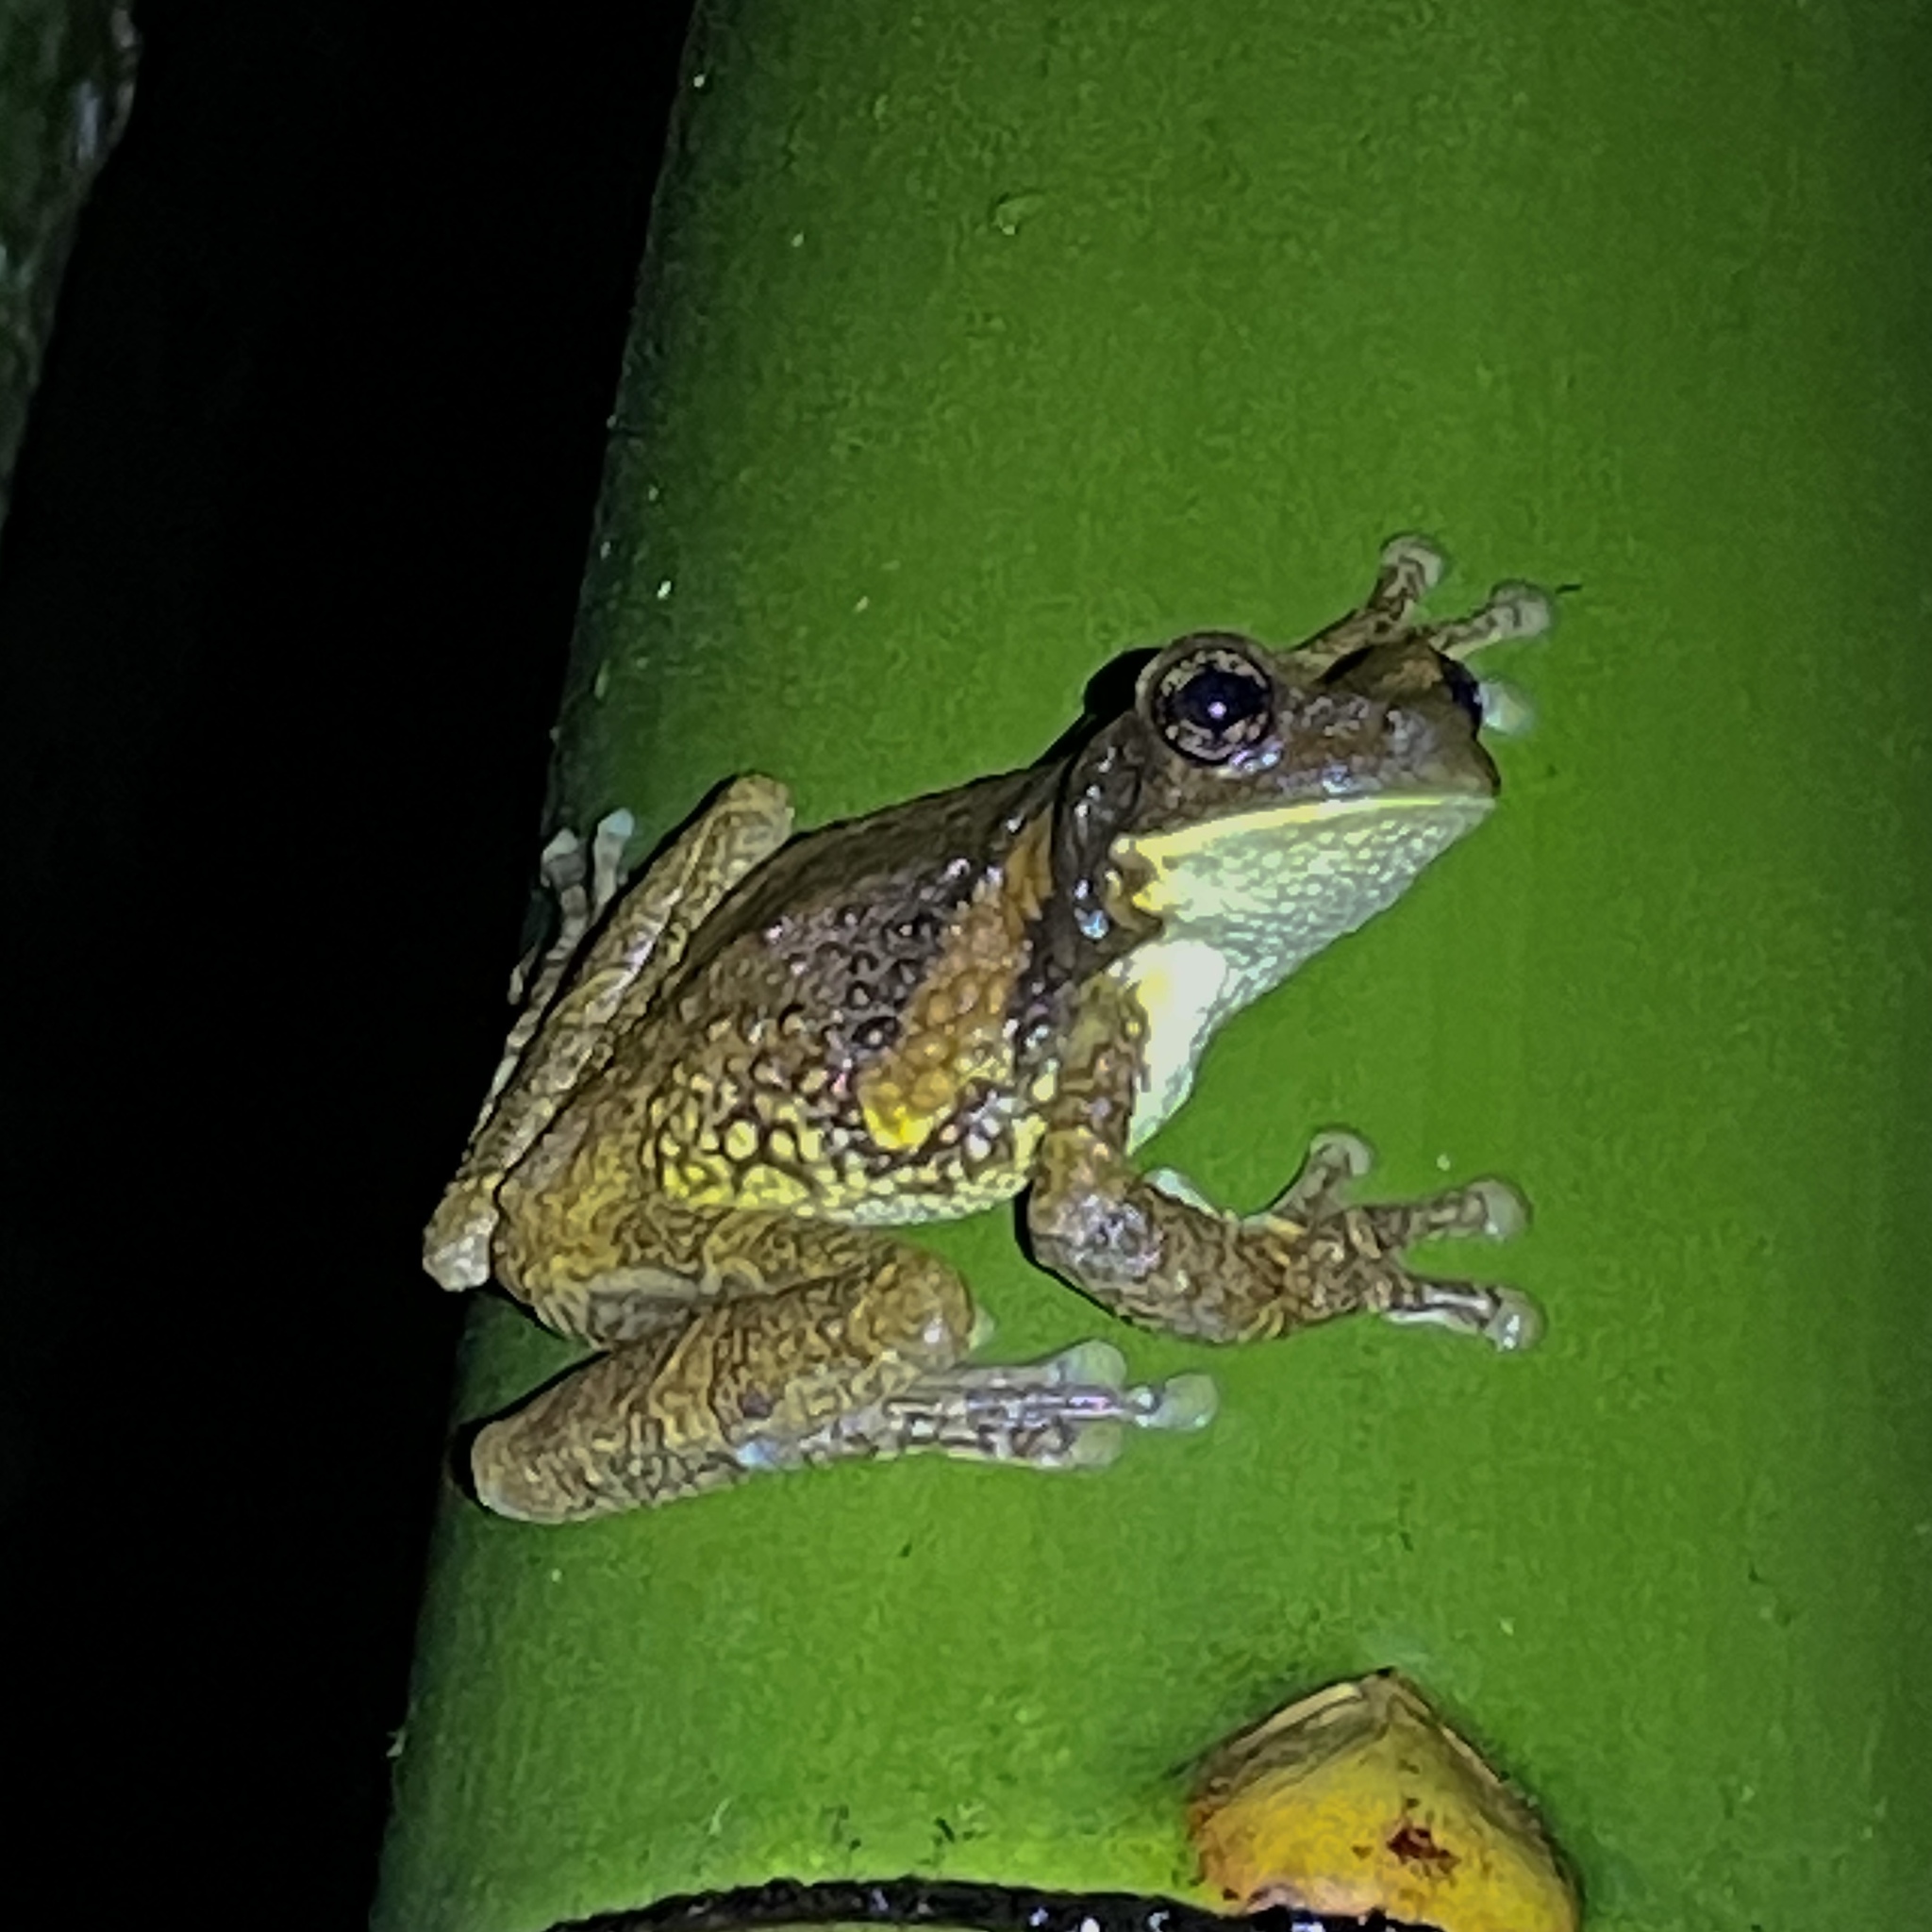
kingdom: Animalia
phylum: Chordata
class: Amphibia
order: Anura
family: Hylidae
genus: Trachycephalus
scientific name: Trachycephalus typhonius
